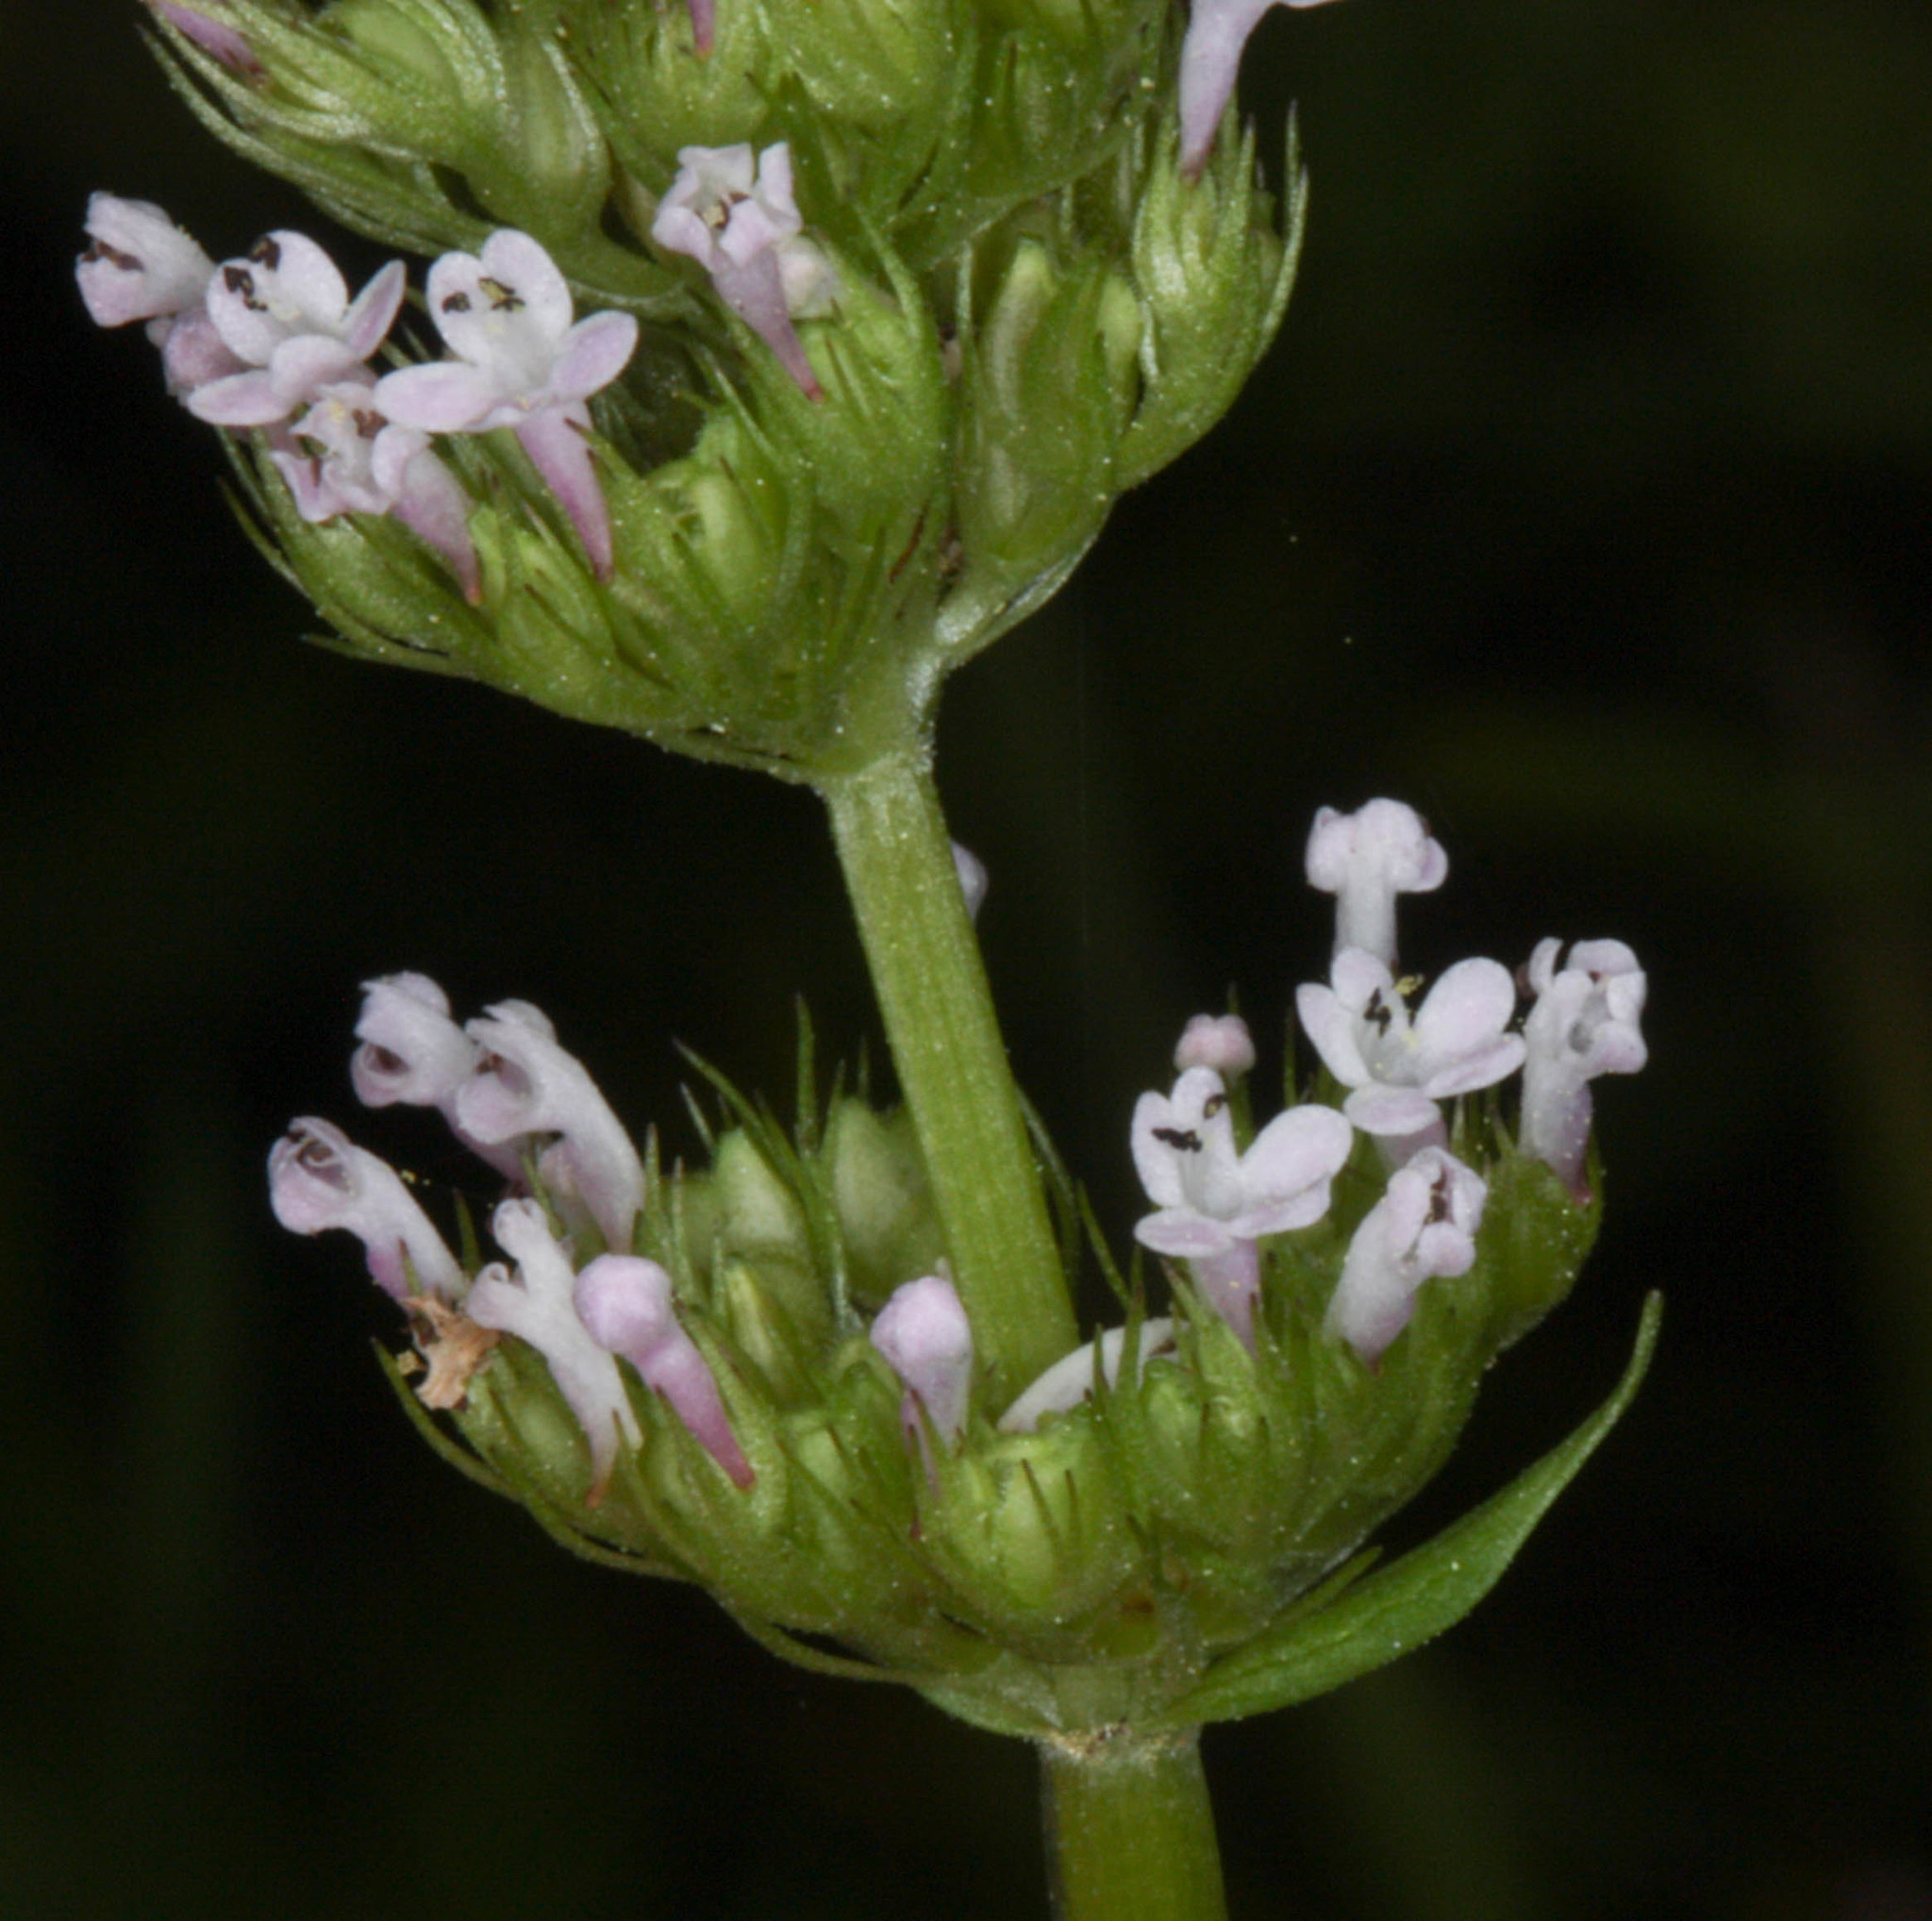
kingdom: Plantae
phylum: Tracheophyta
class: Magnoliopsida
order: Dipsacales
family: Caprifoliaceae
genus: Plectritis
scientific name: Plectritis macroptera
